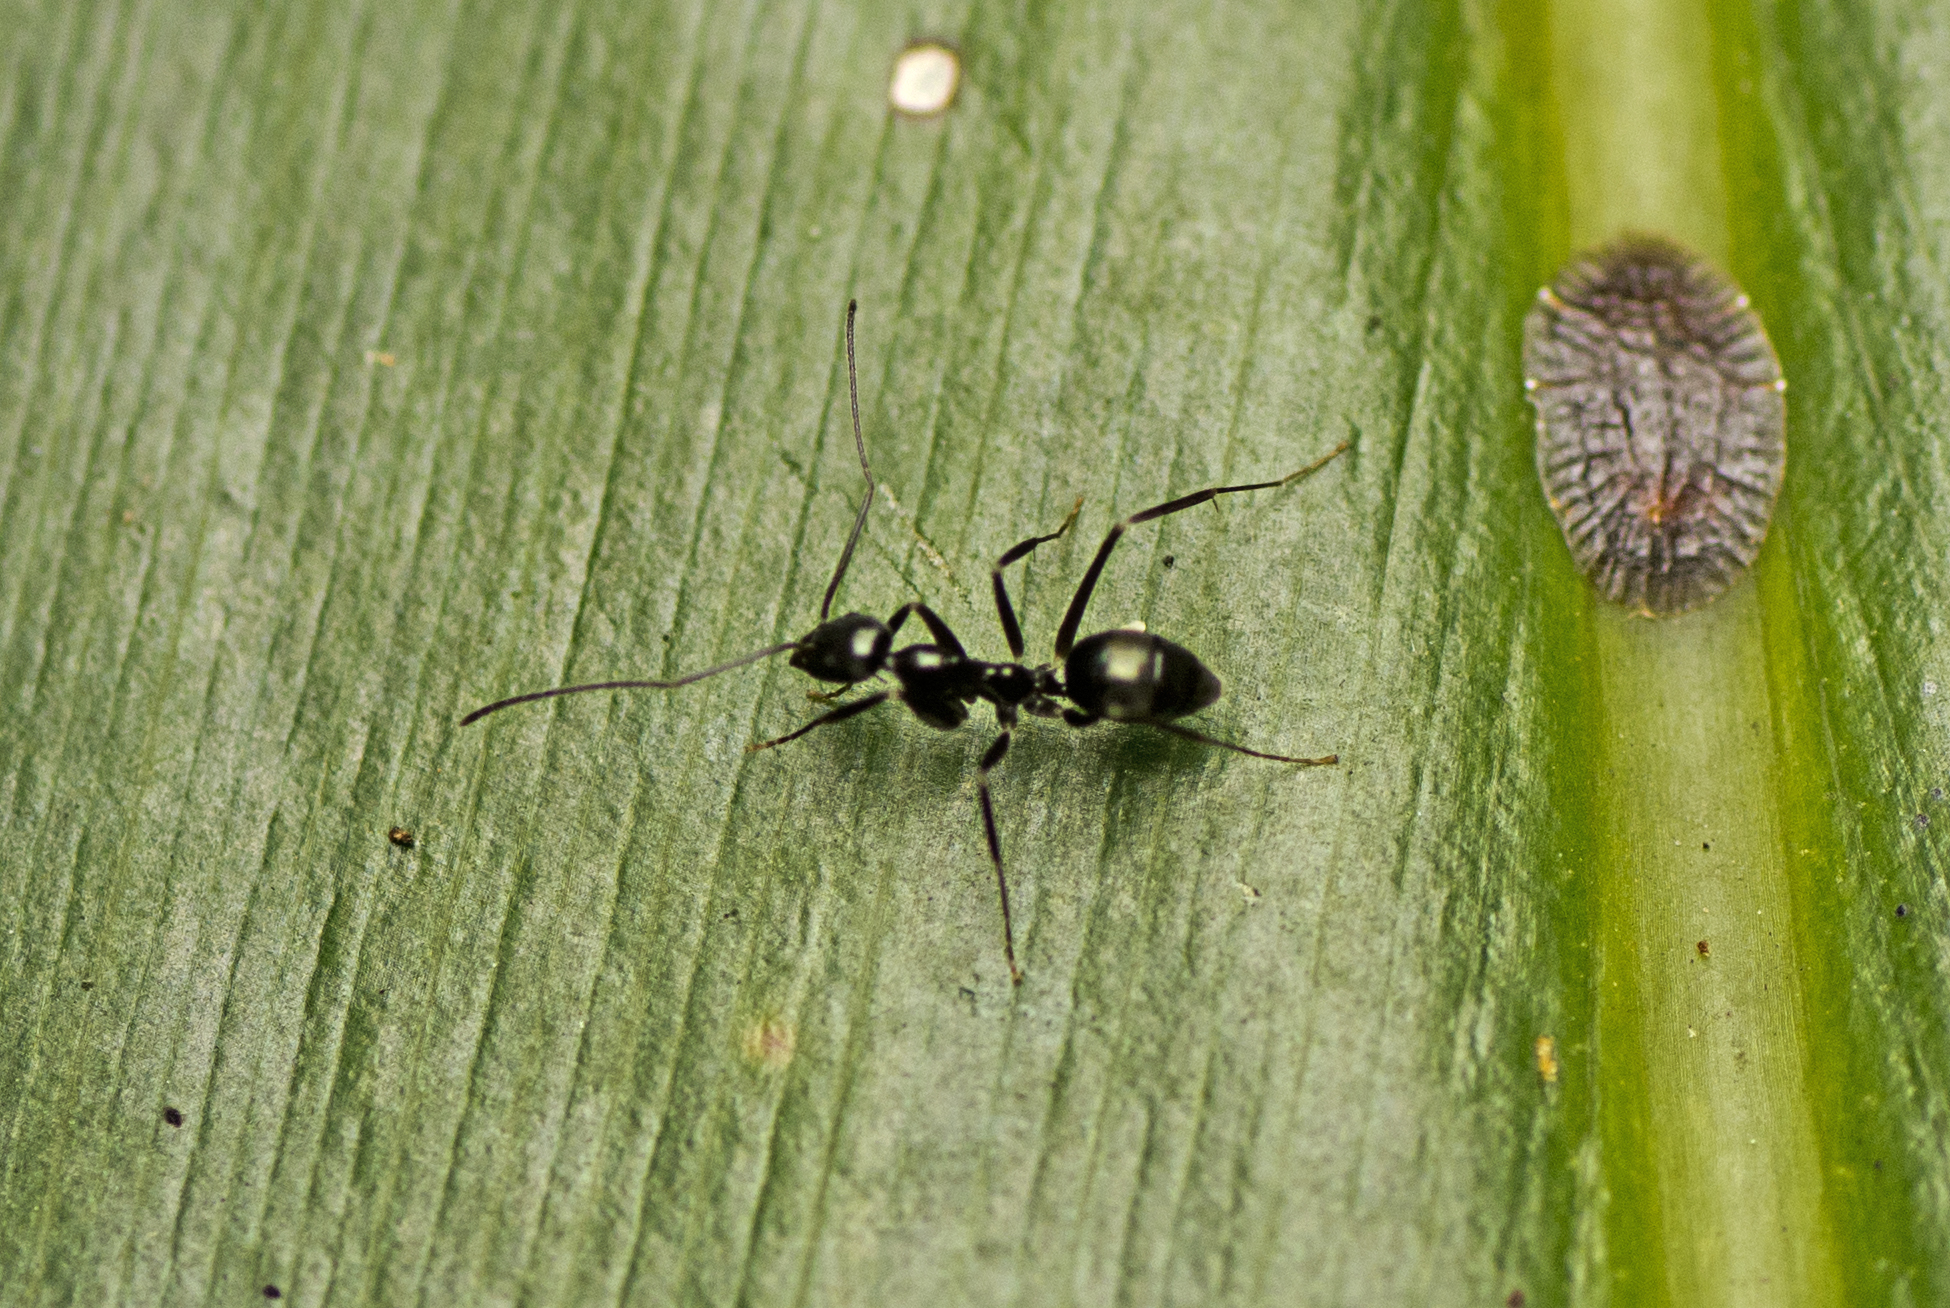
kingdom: Animalia
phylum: Arthropoda
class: Insecta
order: Hymenoptera
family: Formicidae
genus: Leptomyrmex
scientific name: Leptomyrmex burwelli
